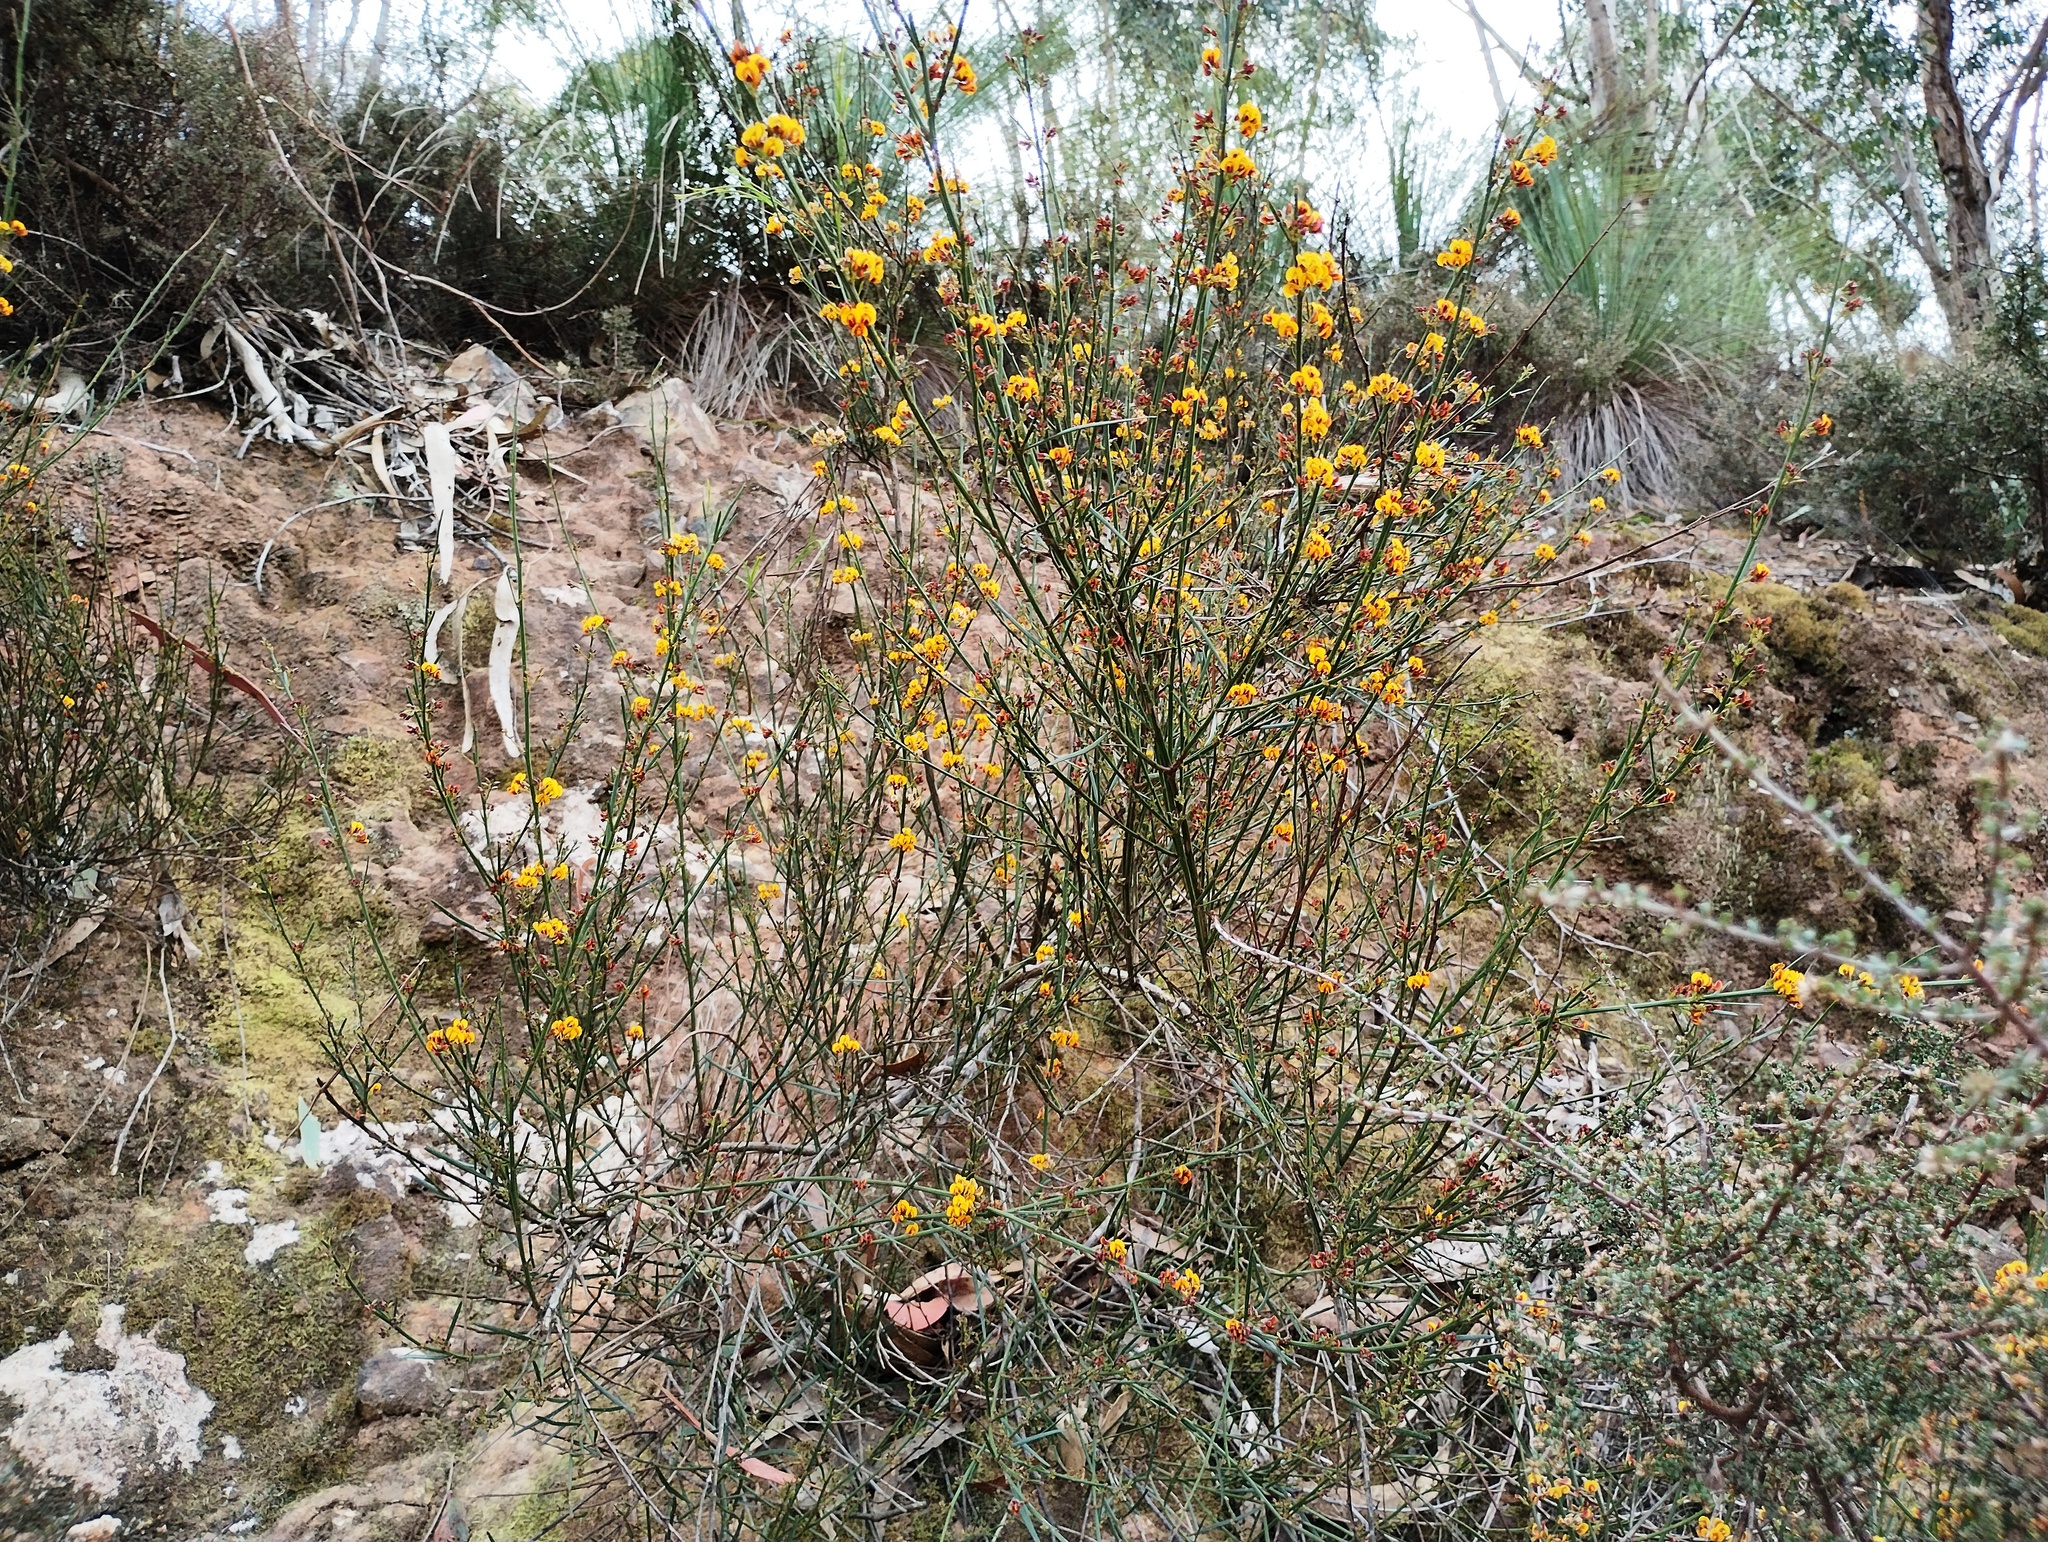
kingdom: Plantae
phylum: Tracheophyta
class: Magnoliopsida
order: Fabales
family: Fabaceae
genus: Daviesia
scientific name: Daviesia leptophylla
